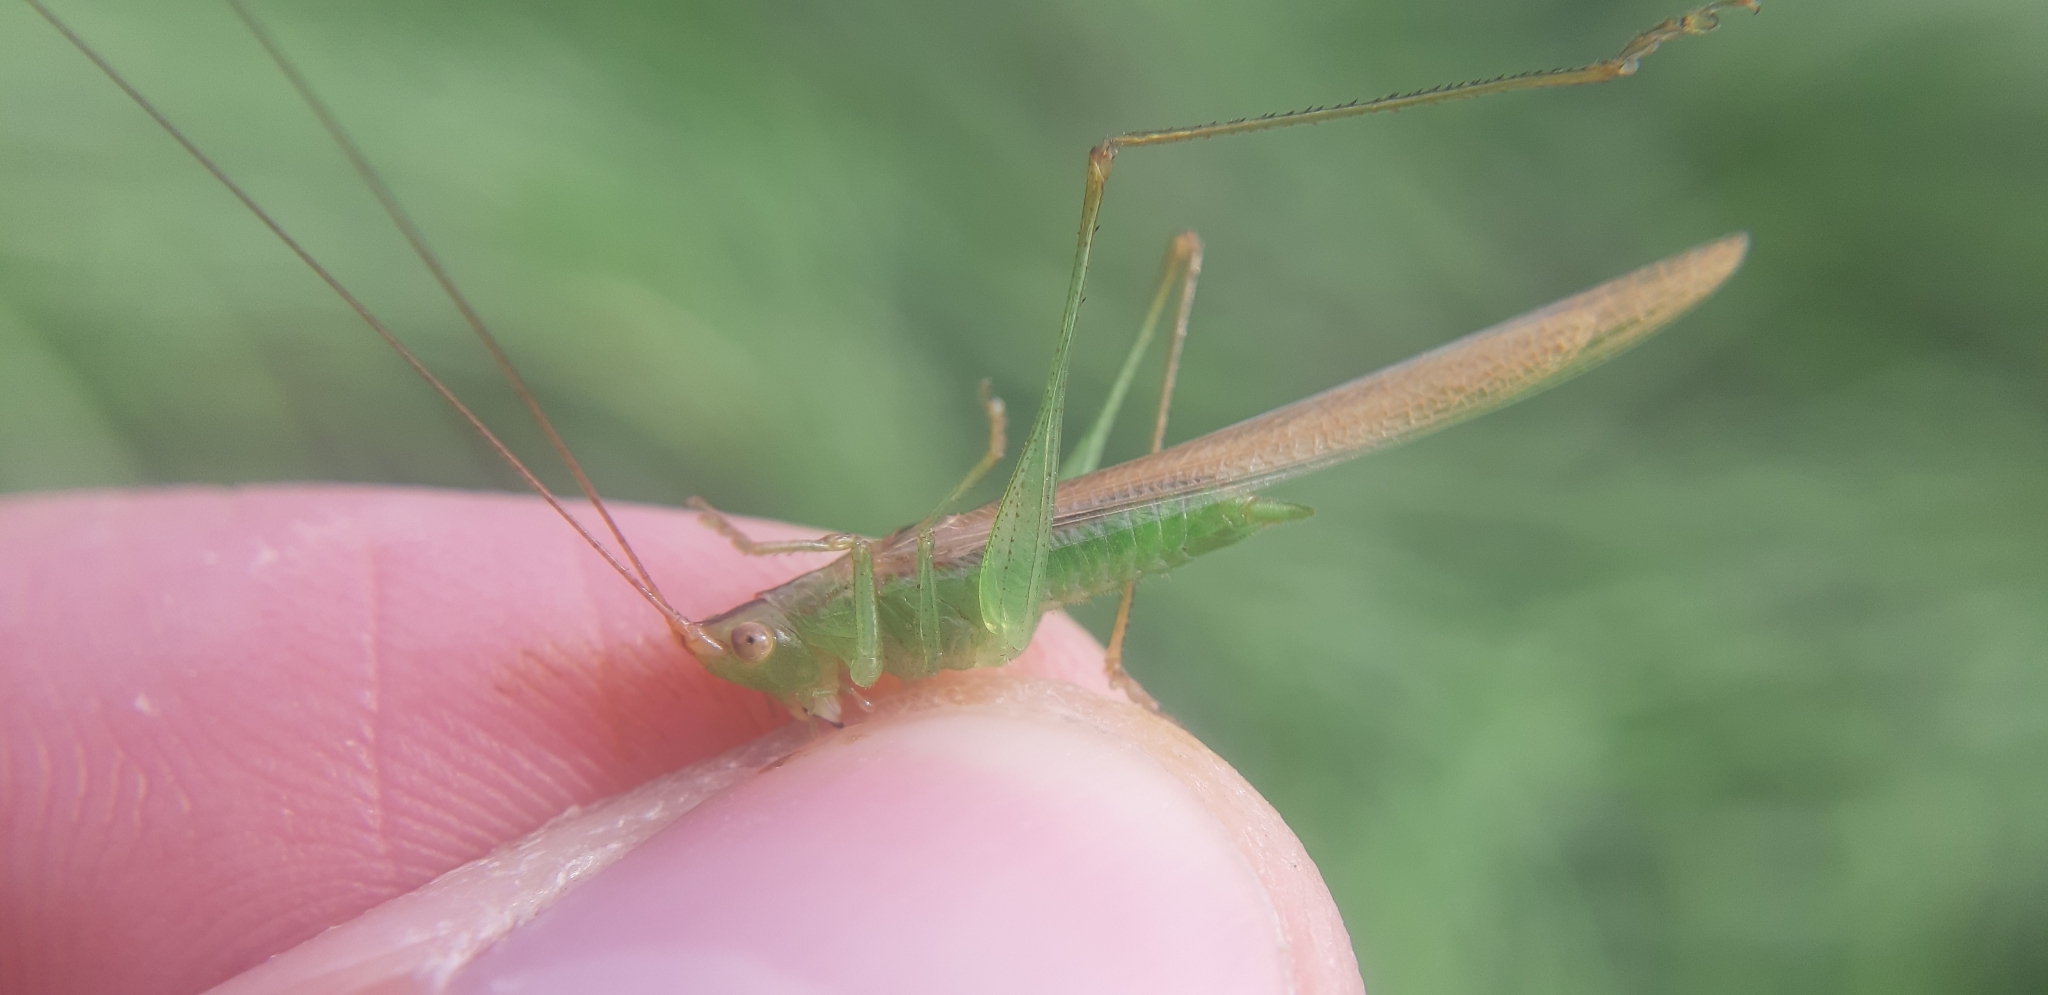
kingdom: Animalia
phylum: Arthropoda
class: Insecta
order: Orthoptera
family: Tettigoniidae
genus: Conocephalus
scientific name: Conocephalus conocephalus
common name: African meadow katydid
